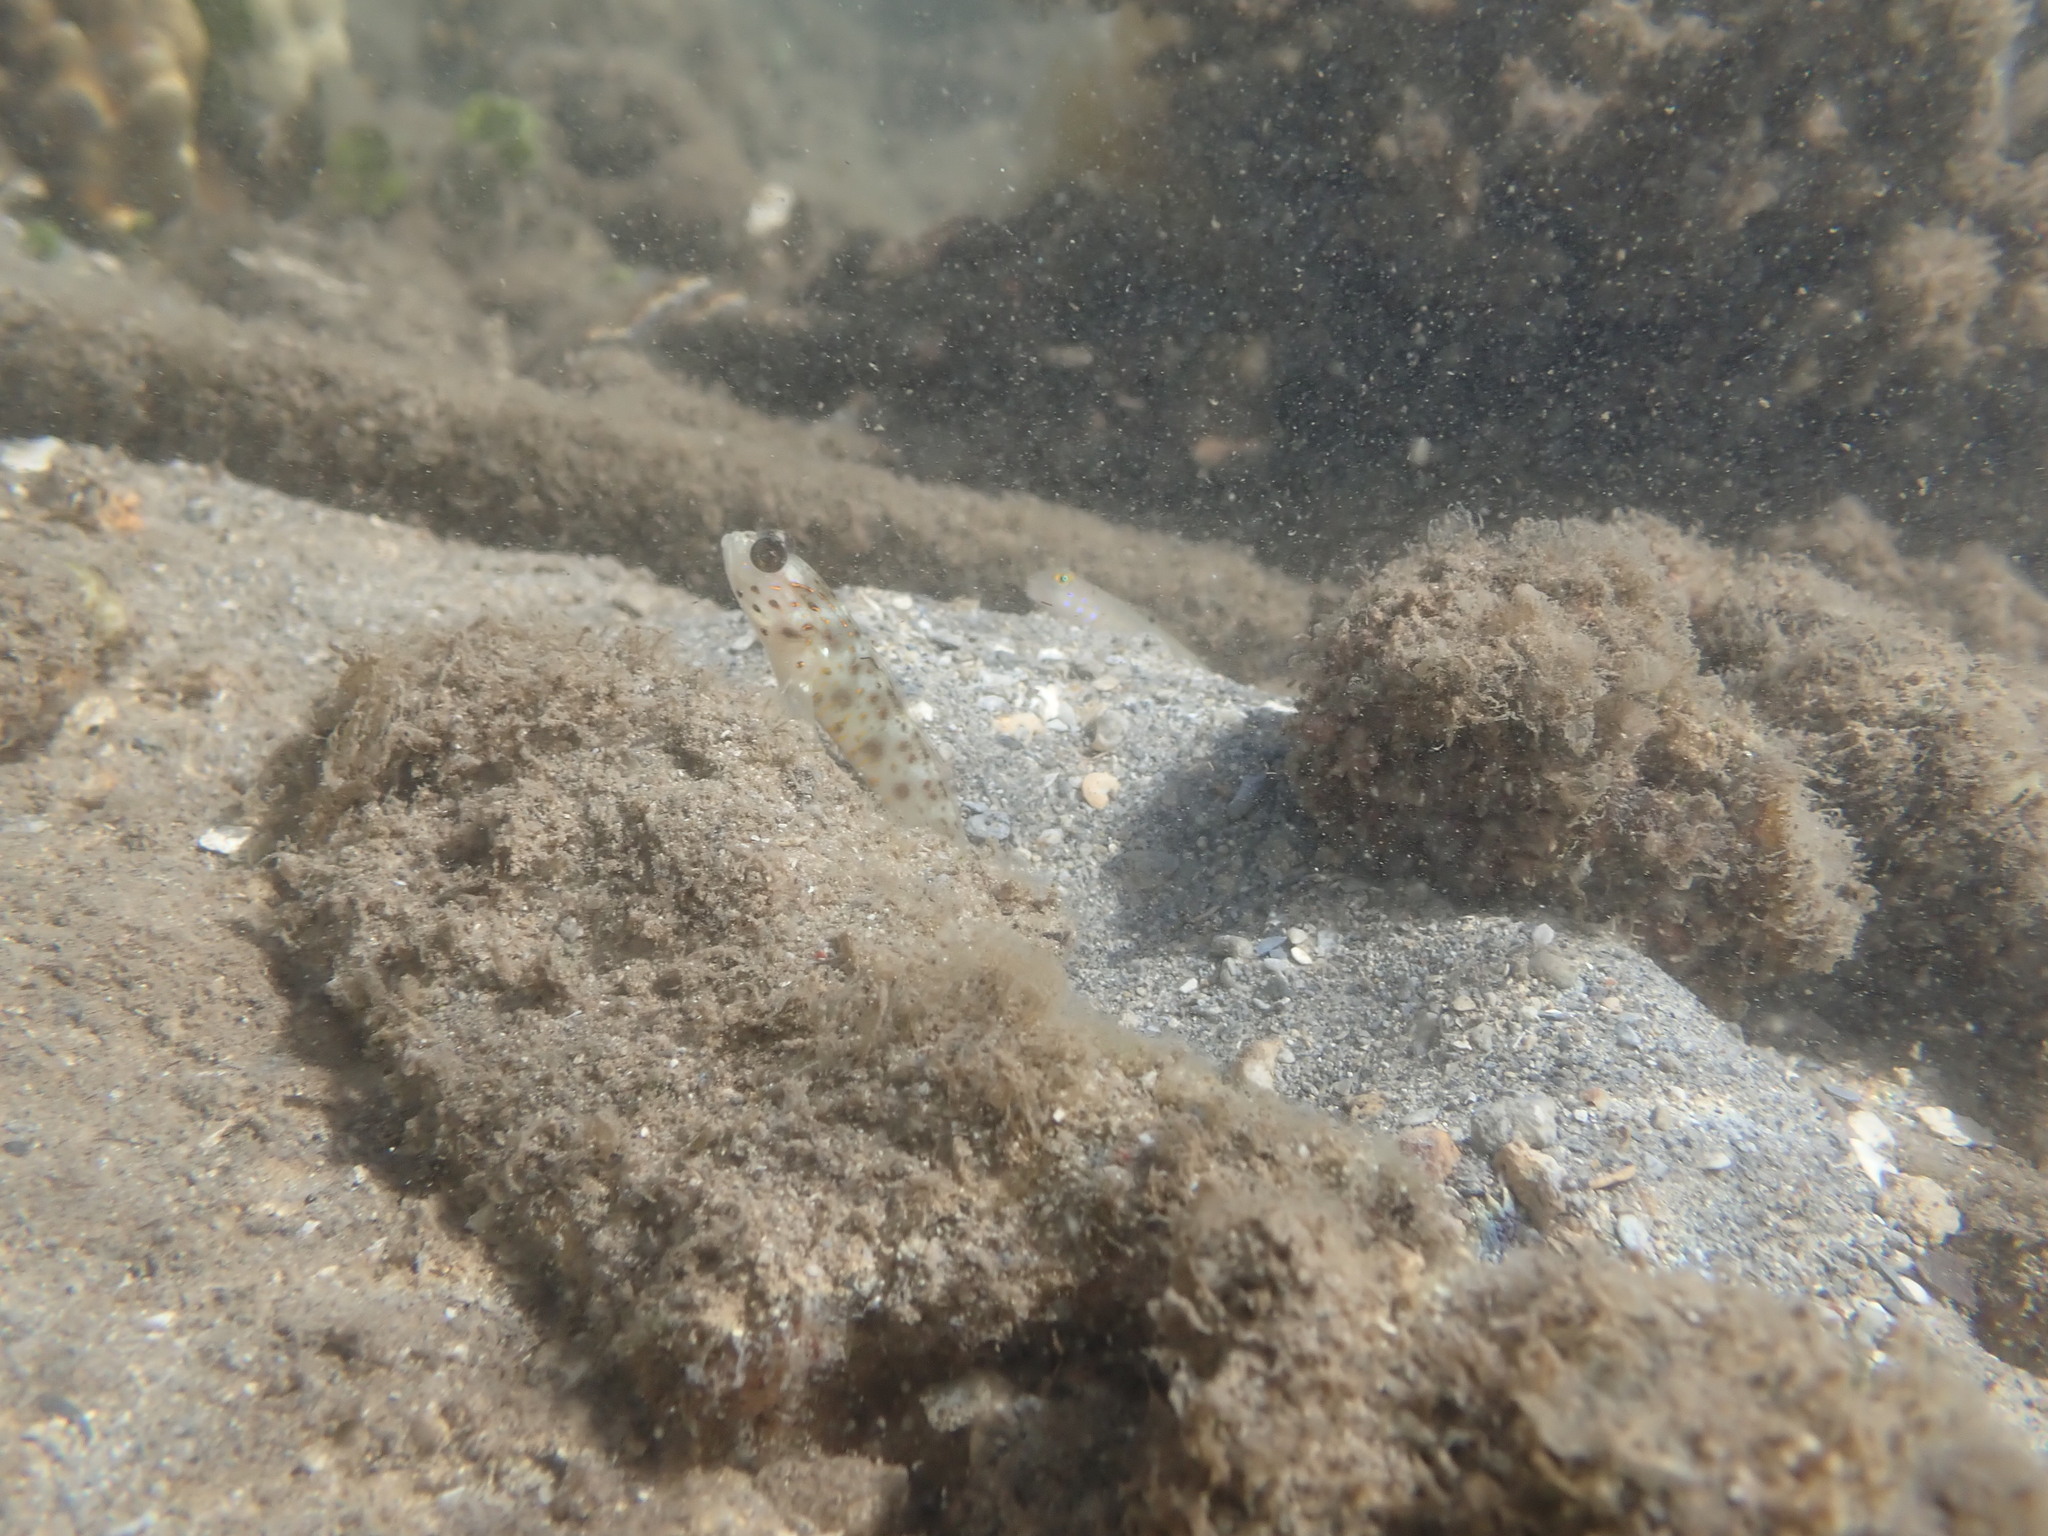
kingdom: Animalia
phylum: Chordata
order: Perciformes
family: Gobiidae
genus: Ctenogobiops
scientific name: Ctenogobiops aurocingulus
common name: Gold-streaked prawn-goby
